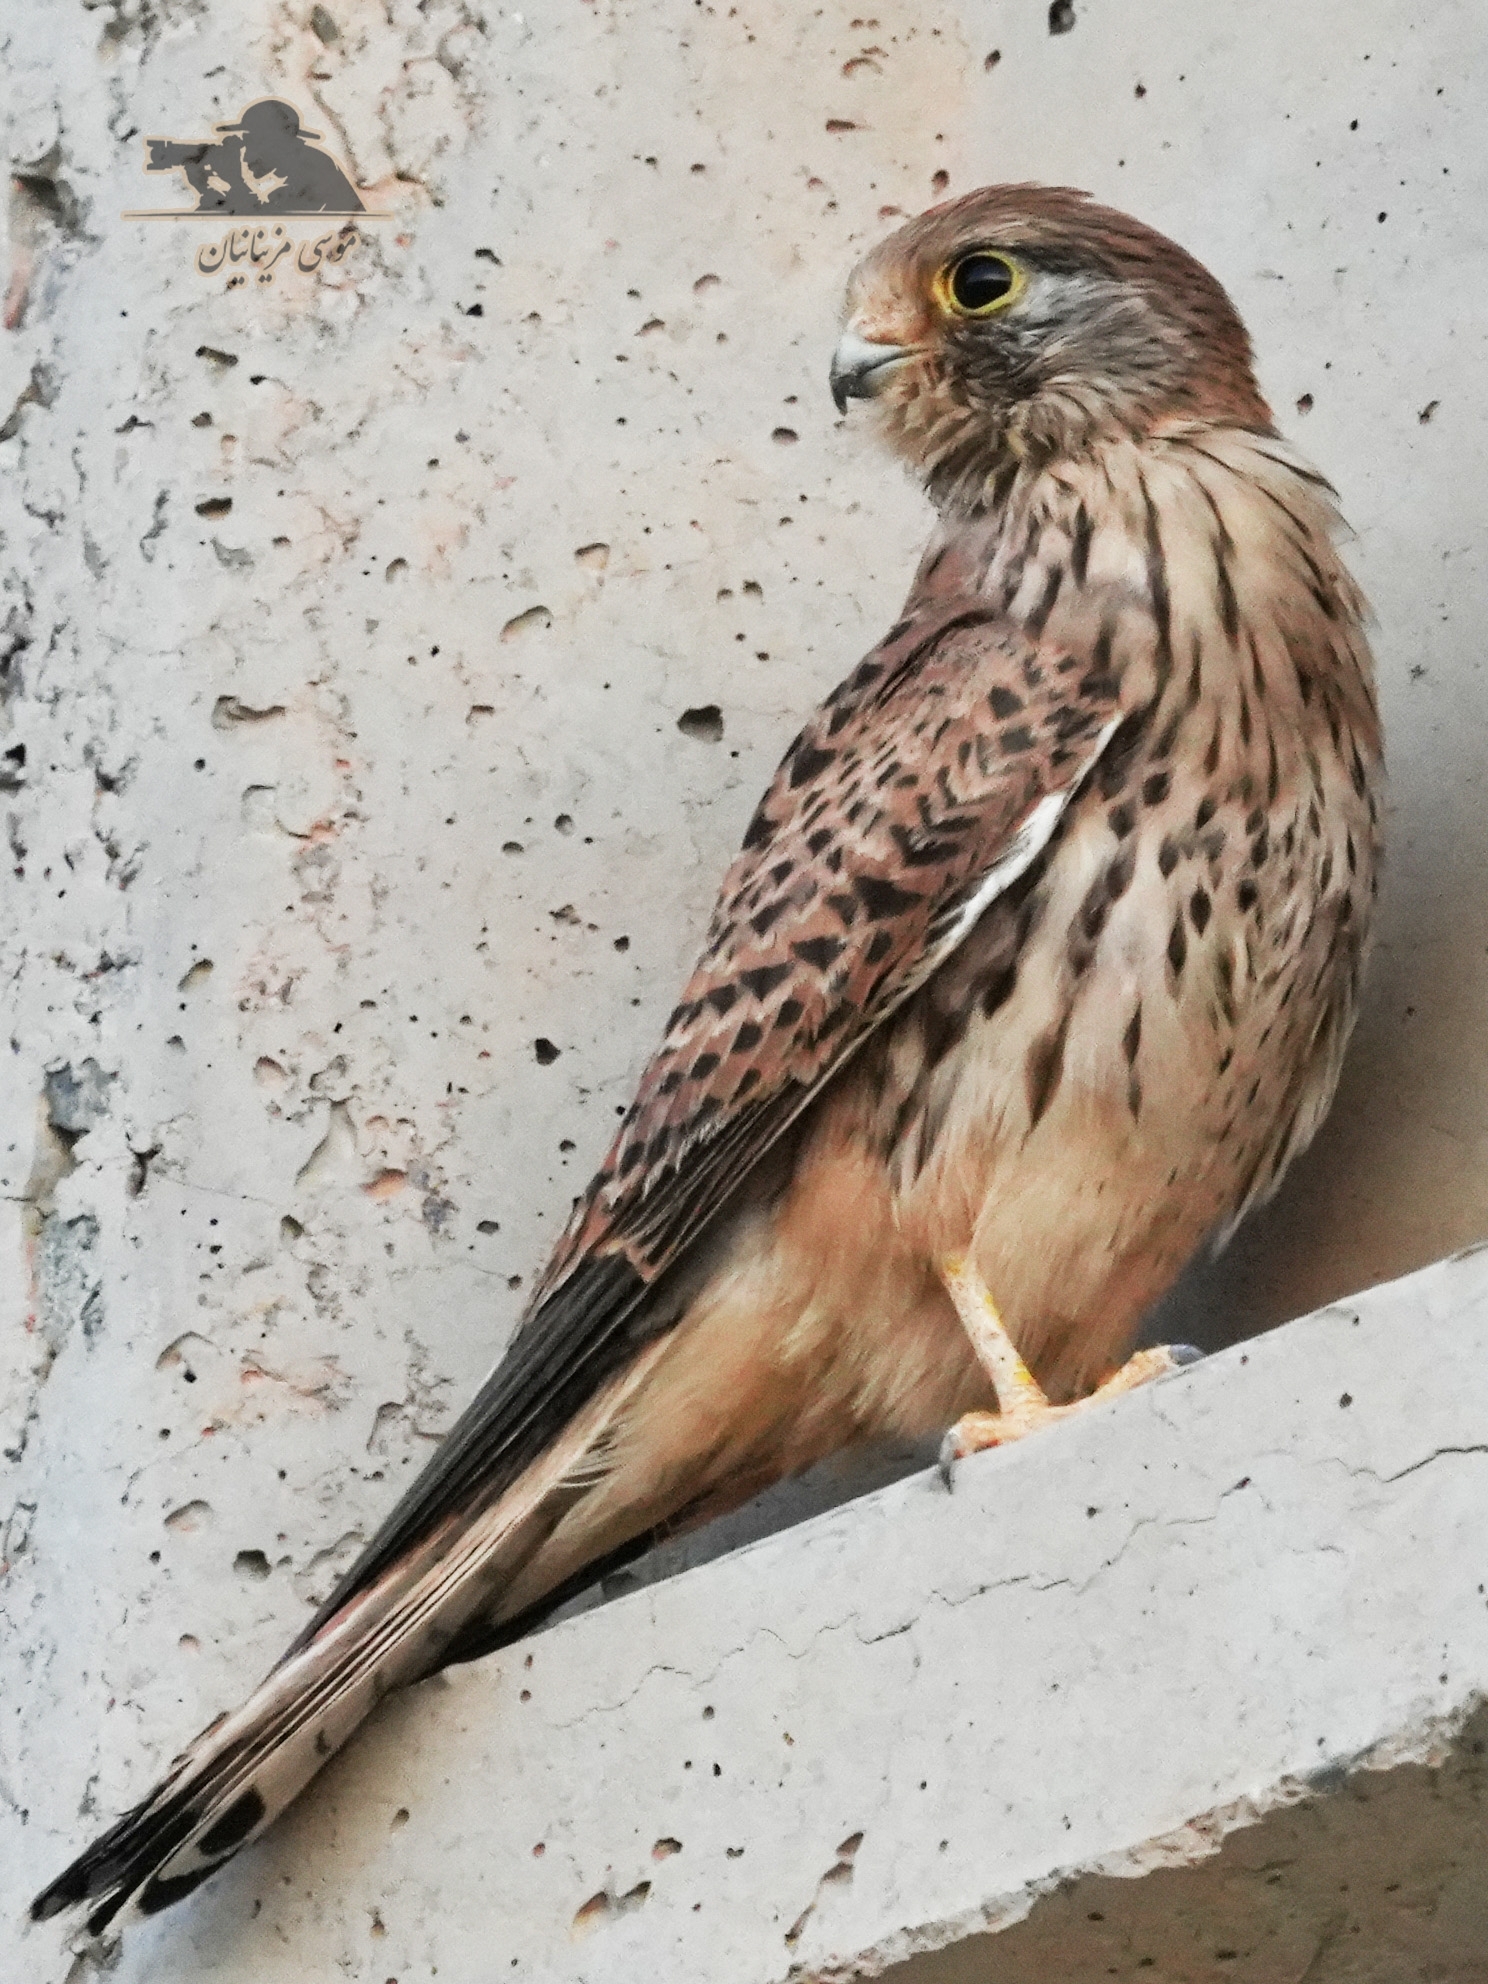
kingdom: Animalia
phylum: Chordata
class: Aves
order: Falconiformes
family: Falconidae
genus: Falco
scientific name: Falco tinnunculus
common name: Common kestrel
